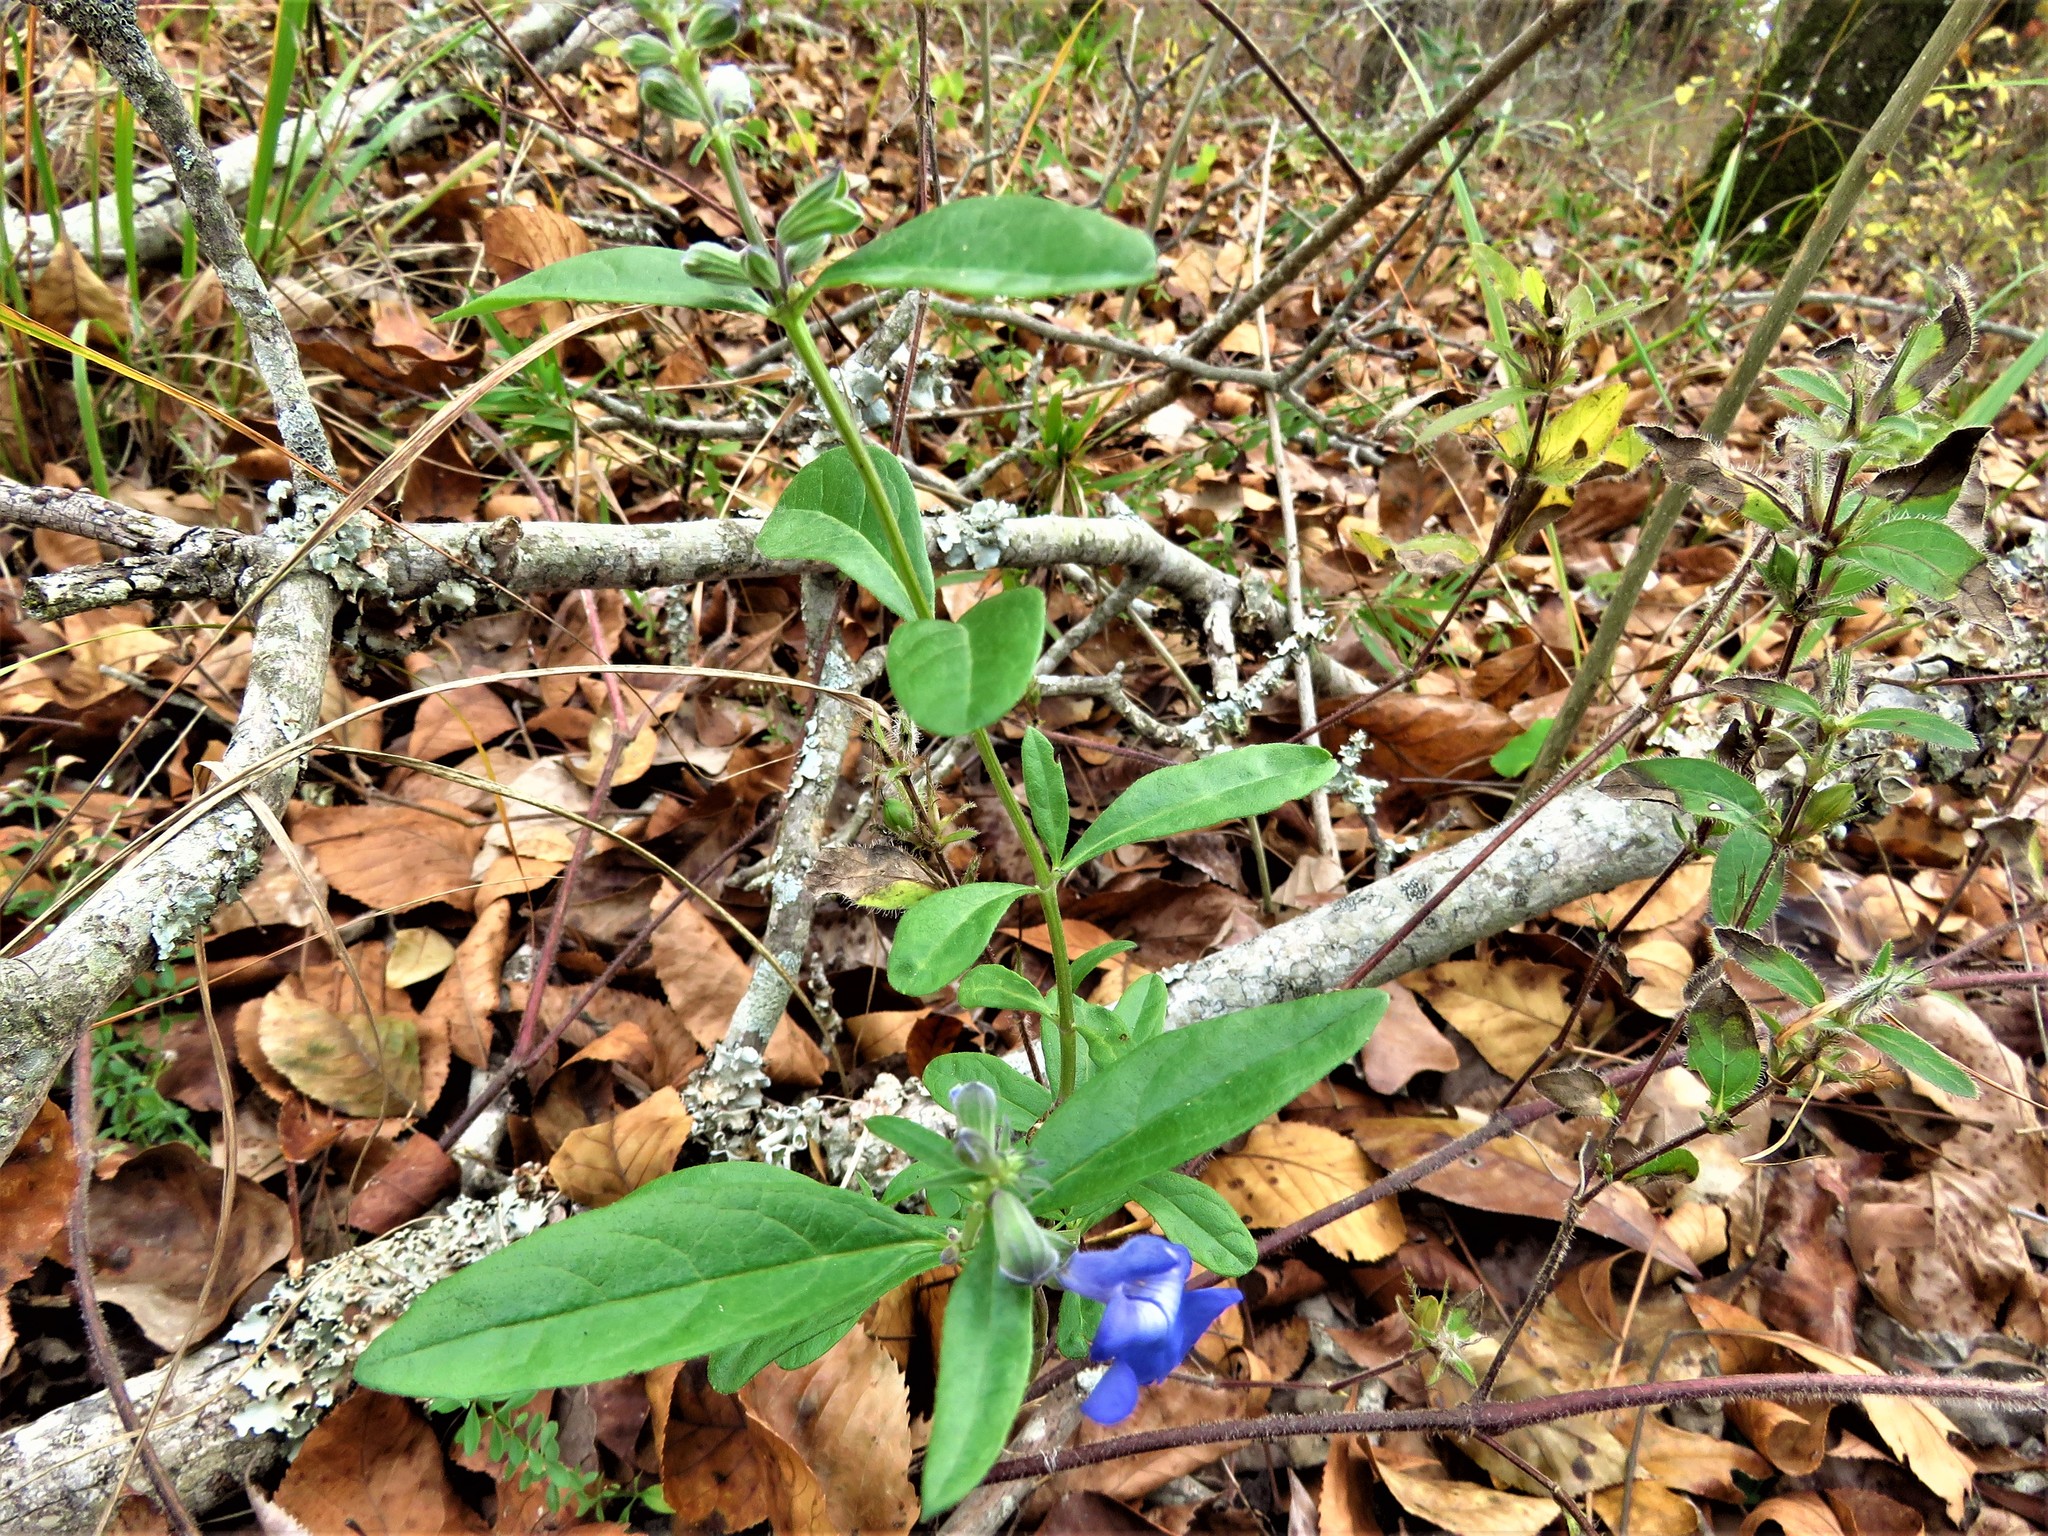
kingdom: Plantae
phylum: Tracheophyta
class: Magnoliopsida
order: Lamiales
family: Lamiaceae
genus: Salvia
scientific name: Salvia azurea
